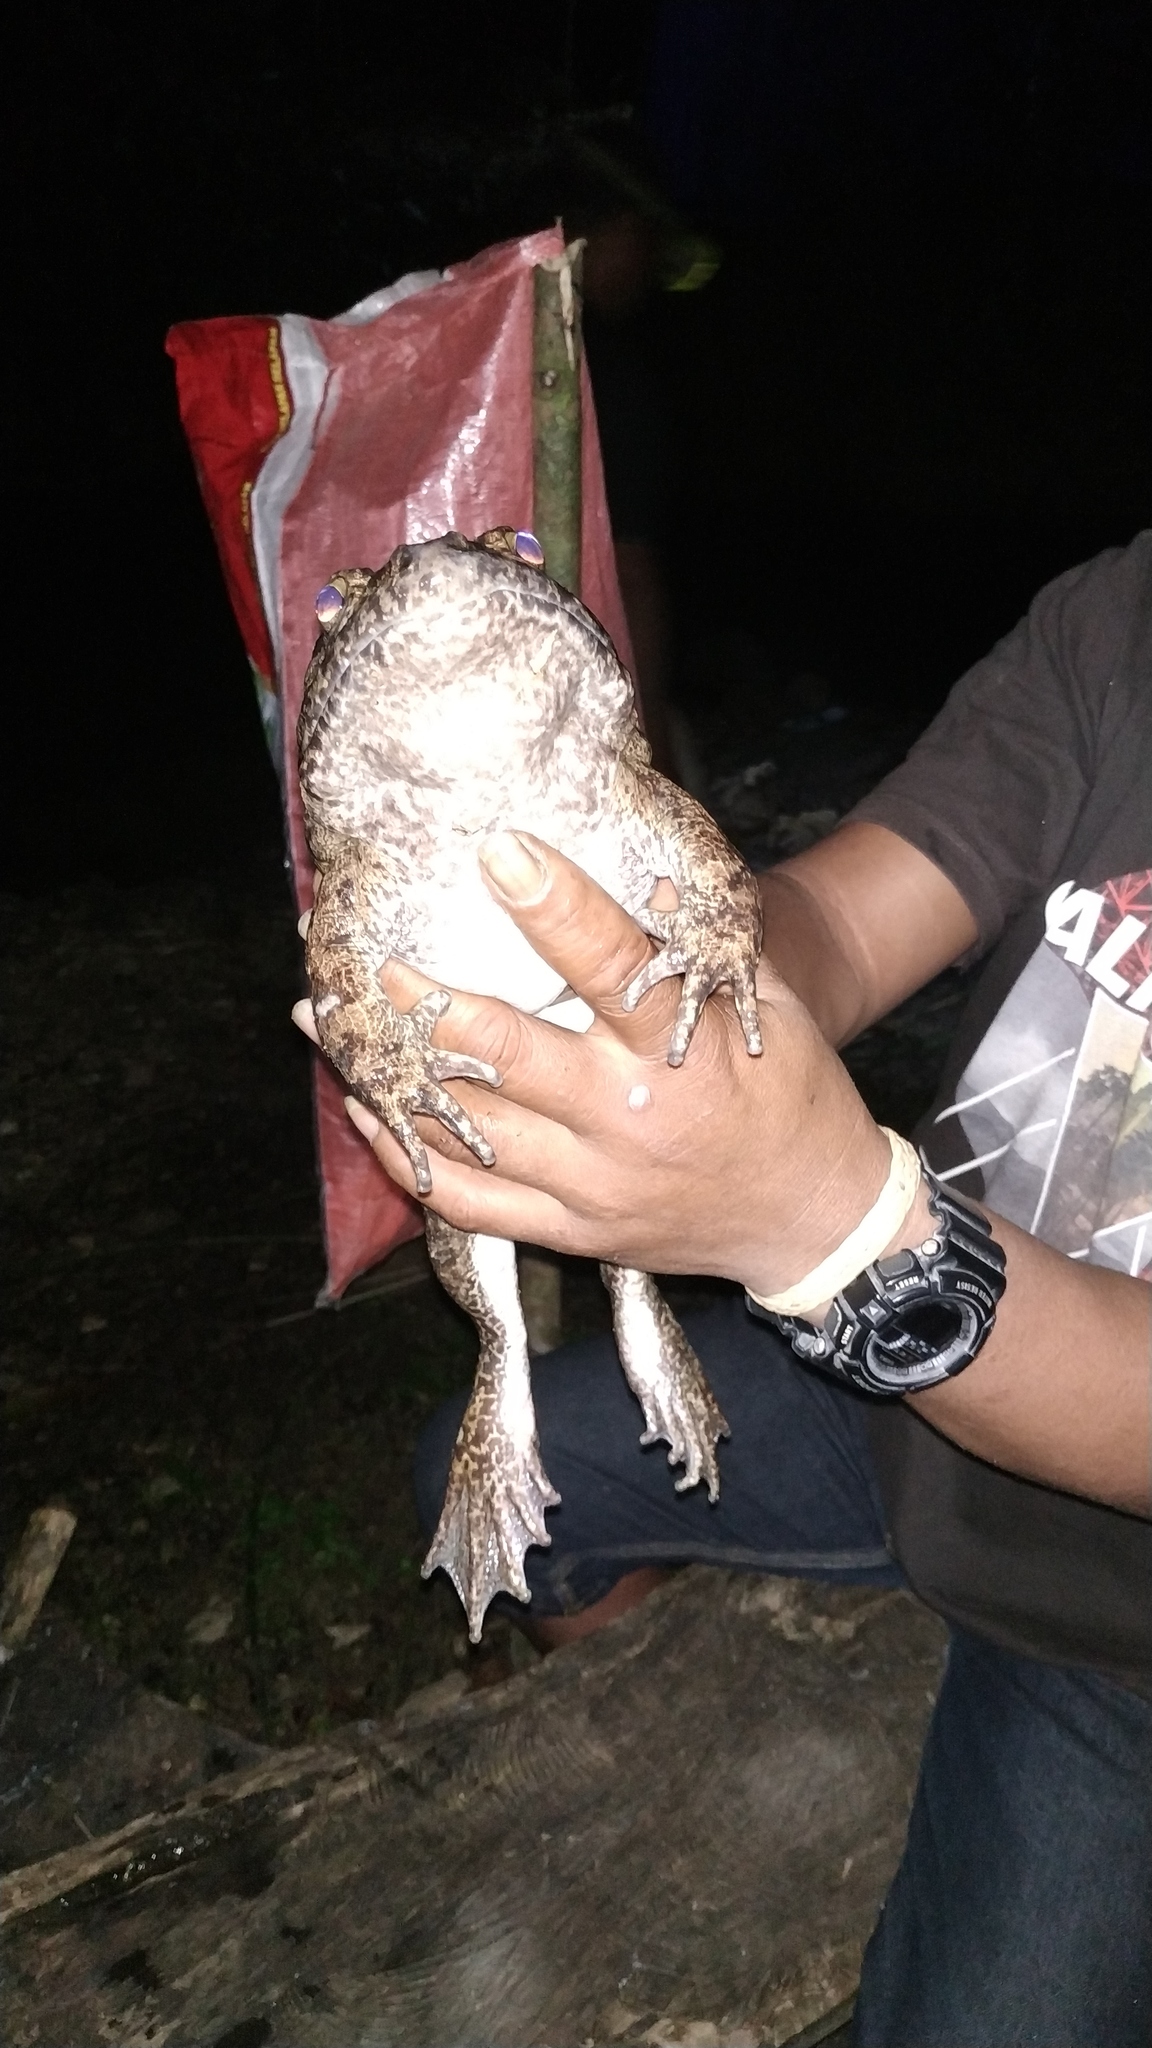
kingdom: Animalia
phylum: Chordata
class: Amphibia
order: Anura
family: Dicroglossidae
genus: Limnonectes
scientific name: Limnonectes grunniens
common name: Amboina wart frog
